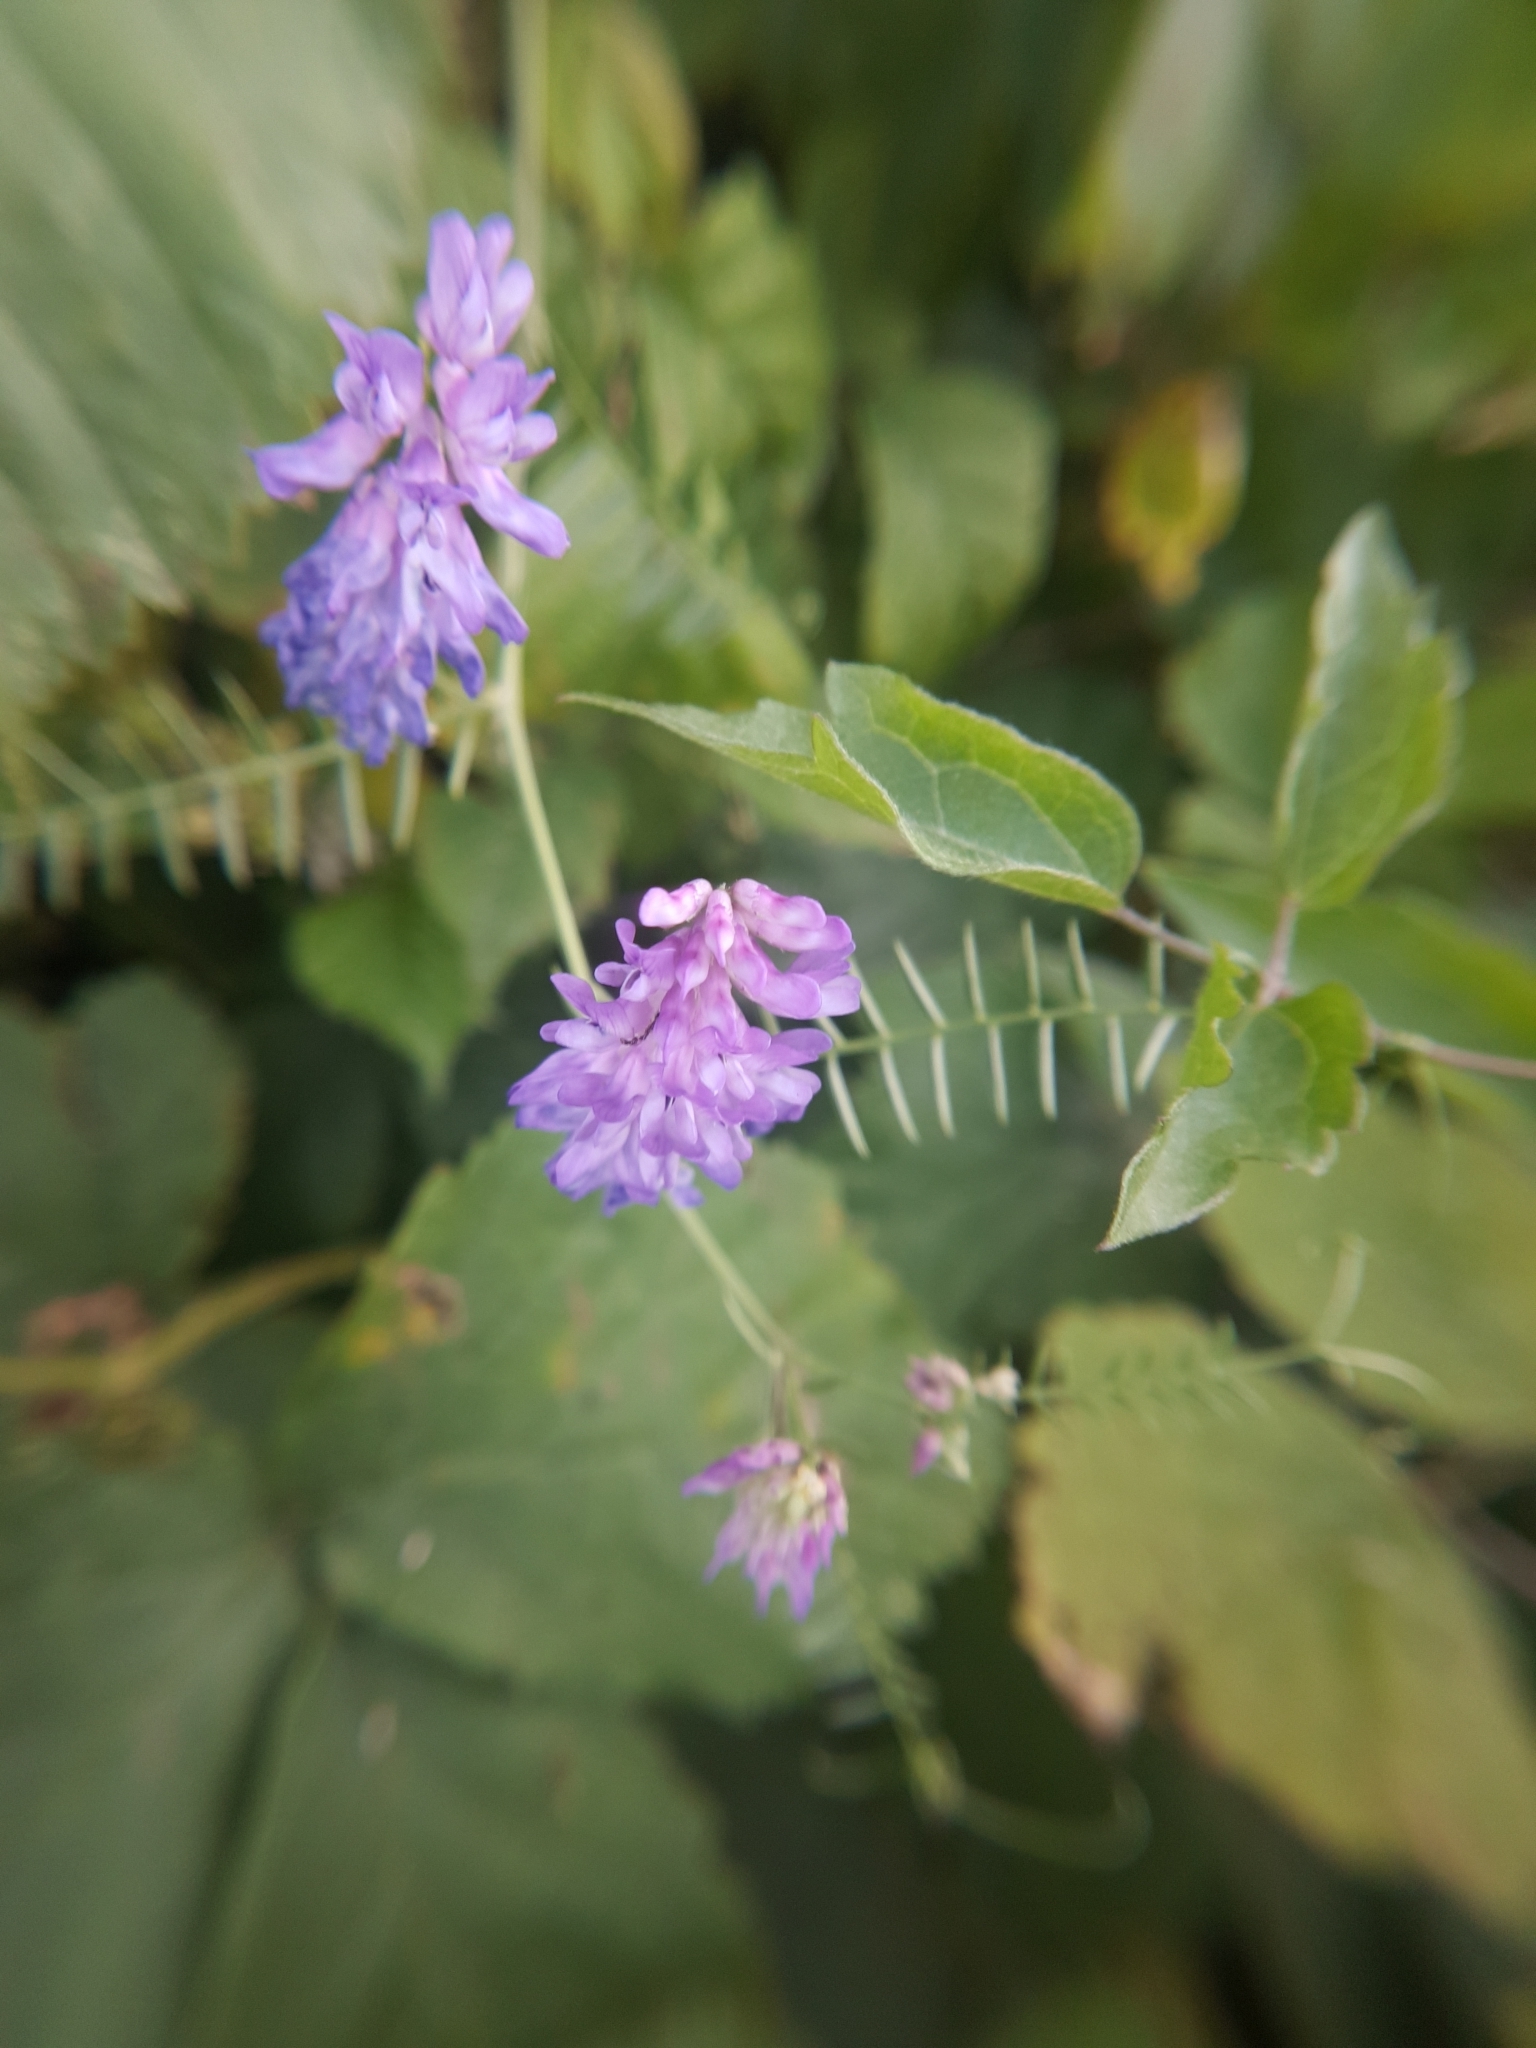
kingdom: Plantae
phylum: Tracheophyta
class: Magnoliopsida
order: Fabales
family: Fabaceae
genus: Coronilla
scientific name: Coronilla varia
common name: Crownvetch
